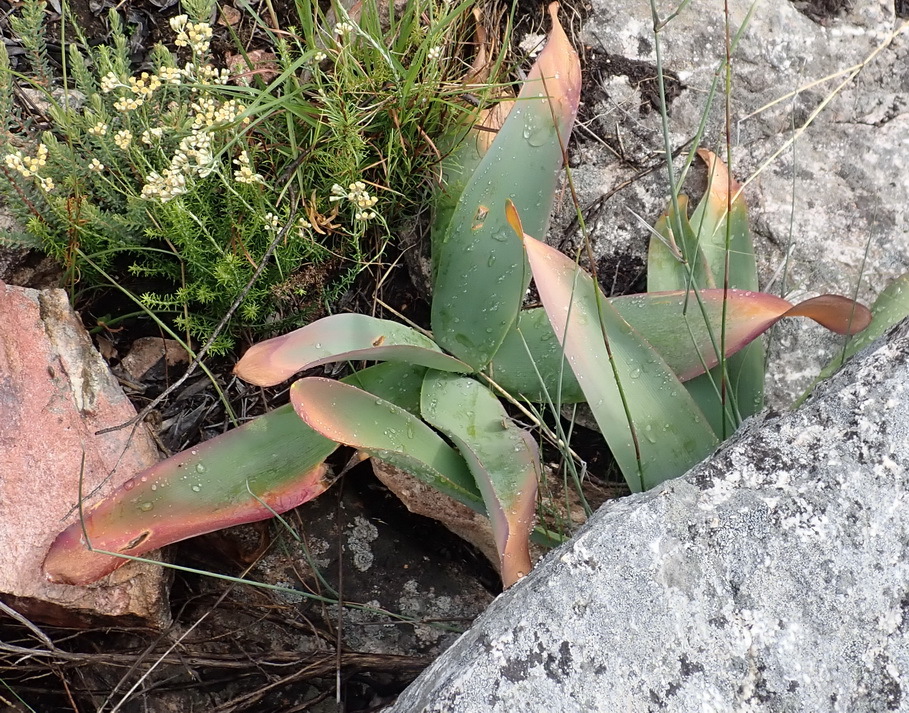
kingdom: Plantae
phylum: Tracheophyta
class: Liliopsida
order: Asparagales
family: Amaryllidaceae
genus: Brunsvigia
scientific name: Brunsvigia josephinae
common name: Josephine's-lily
